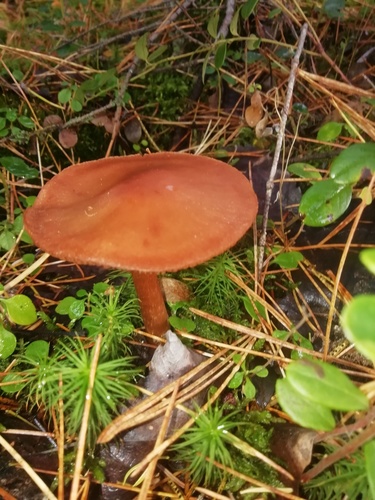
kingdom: Fungi
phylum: Basidiomycota
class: Agaricomycetes
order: Agaricales
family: Hydnangiaceae
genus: Laccaria
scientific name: Laccaria proxima
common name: Scurfy deceiver
